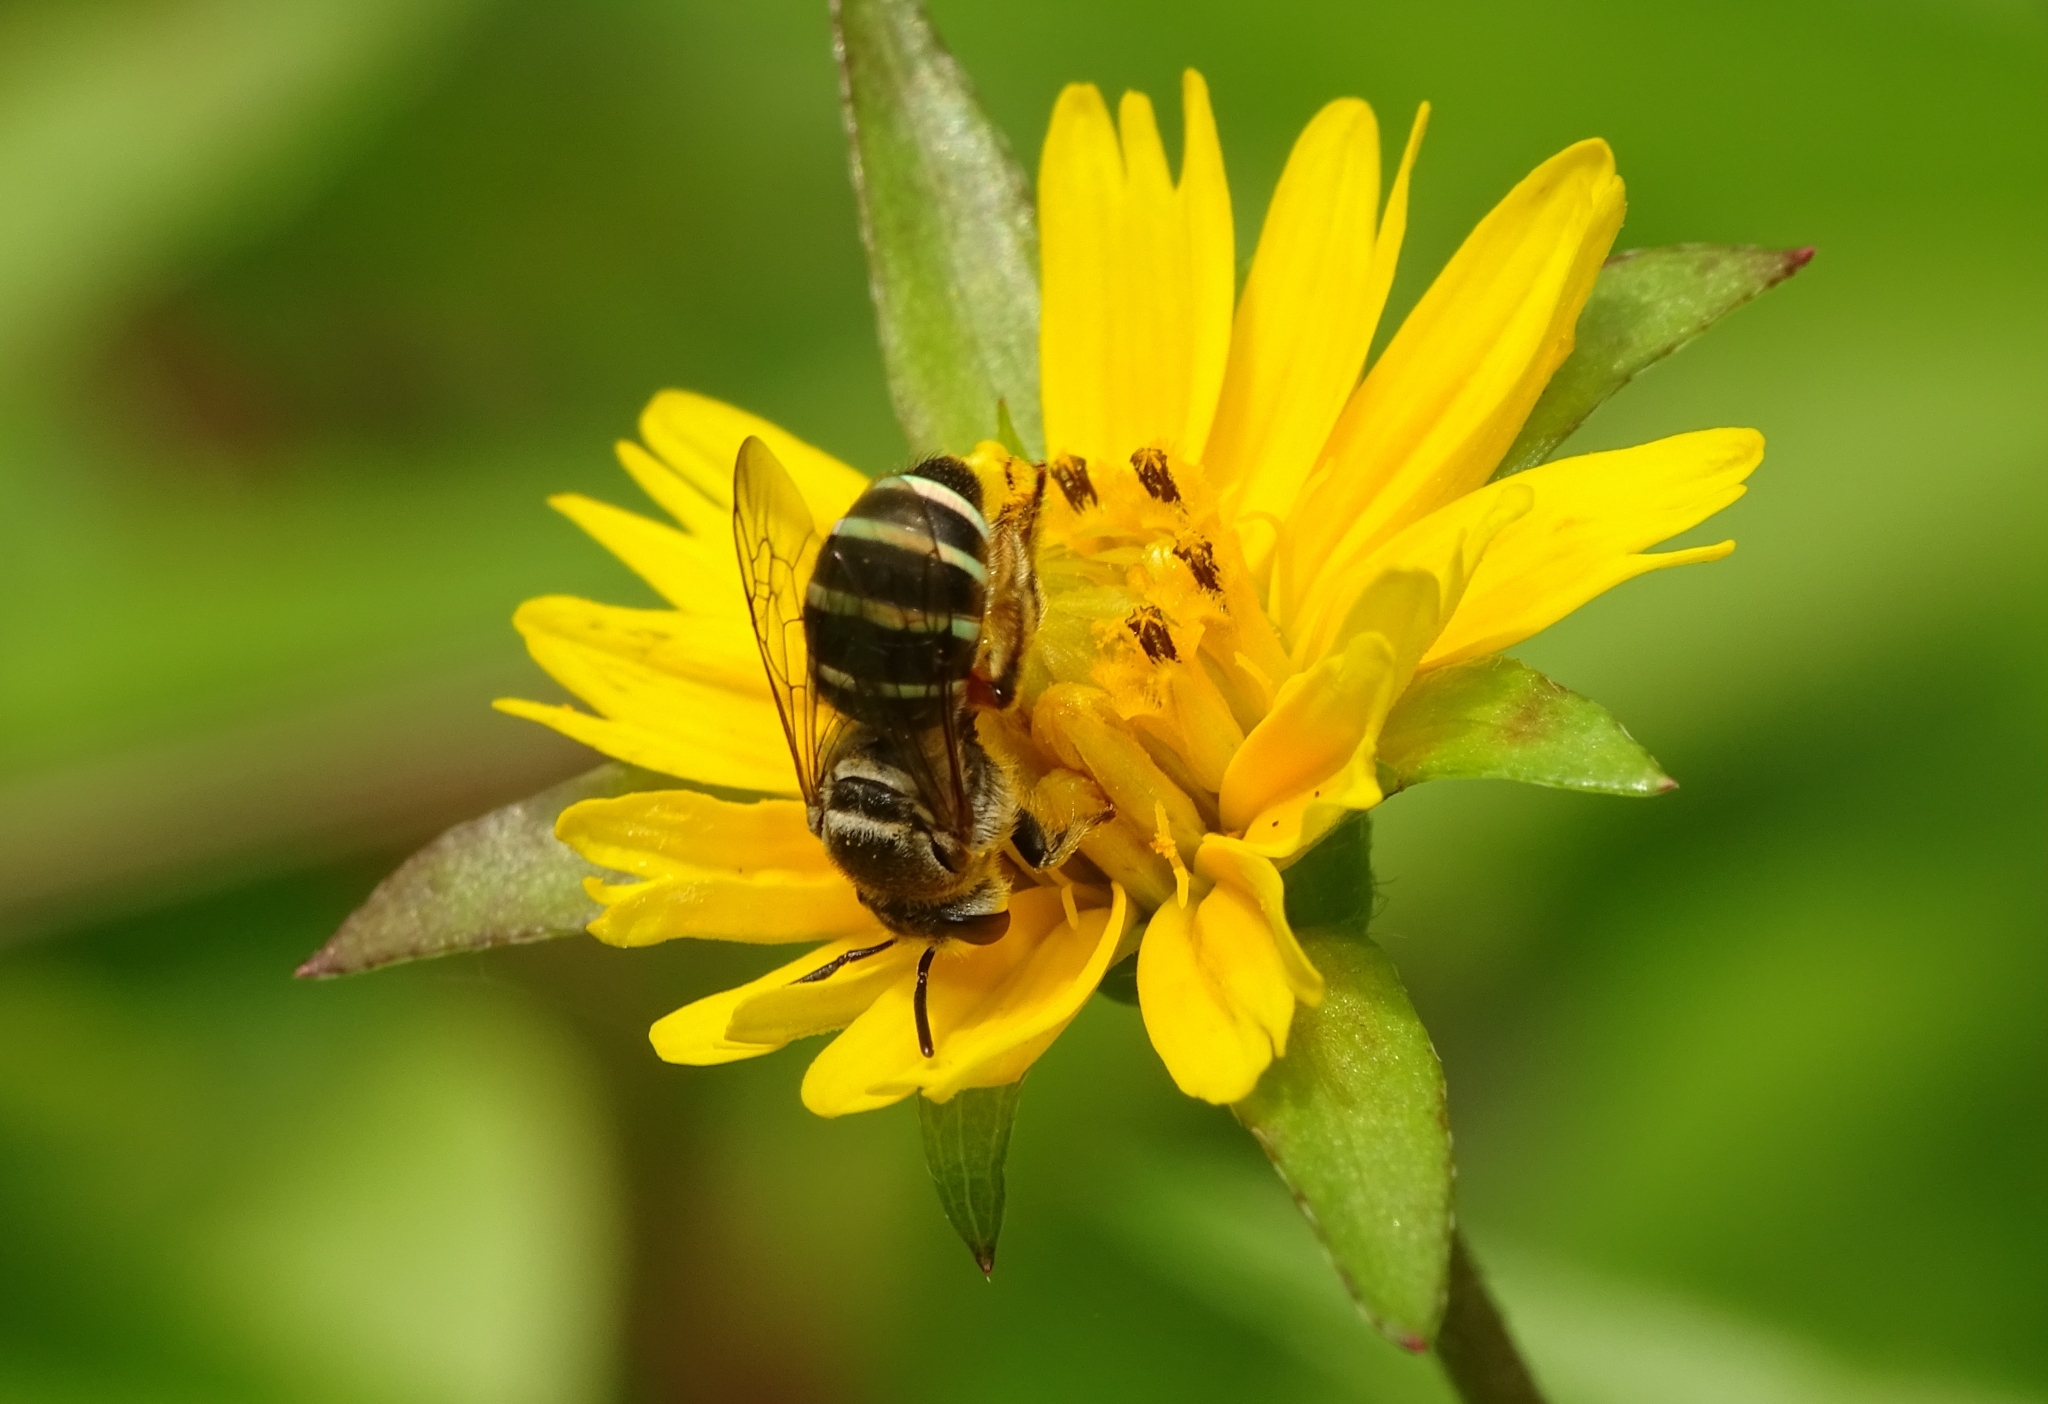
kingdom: Animalia
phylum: Arthropoda
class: Insecta
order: Hymenoptera
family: Halictidae
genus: Nomia
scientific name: Nomia westwoodi
